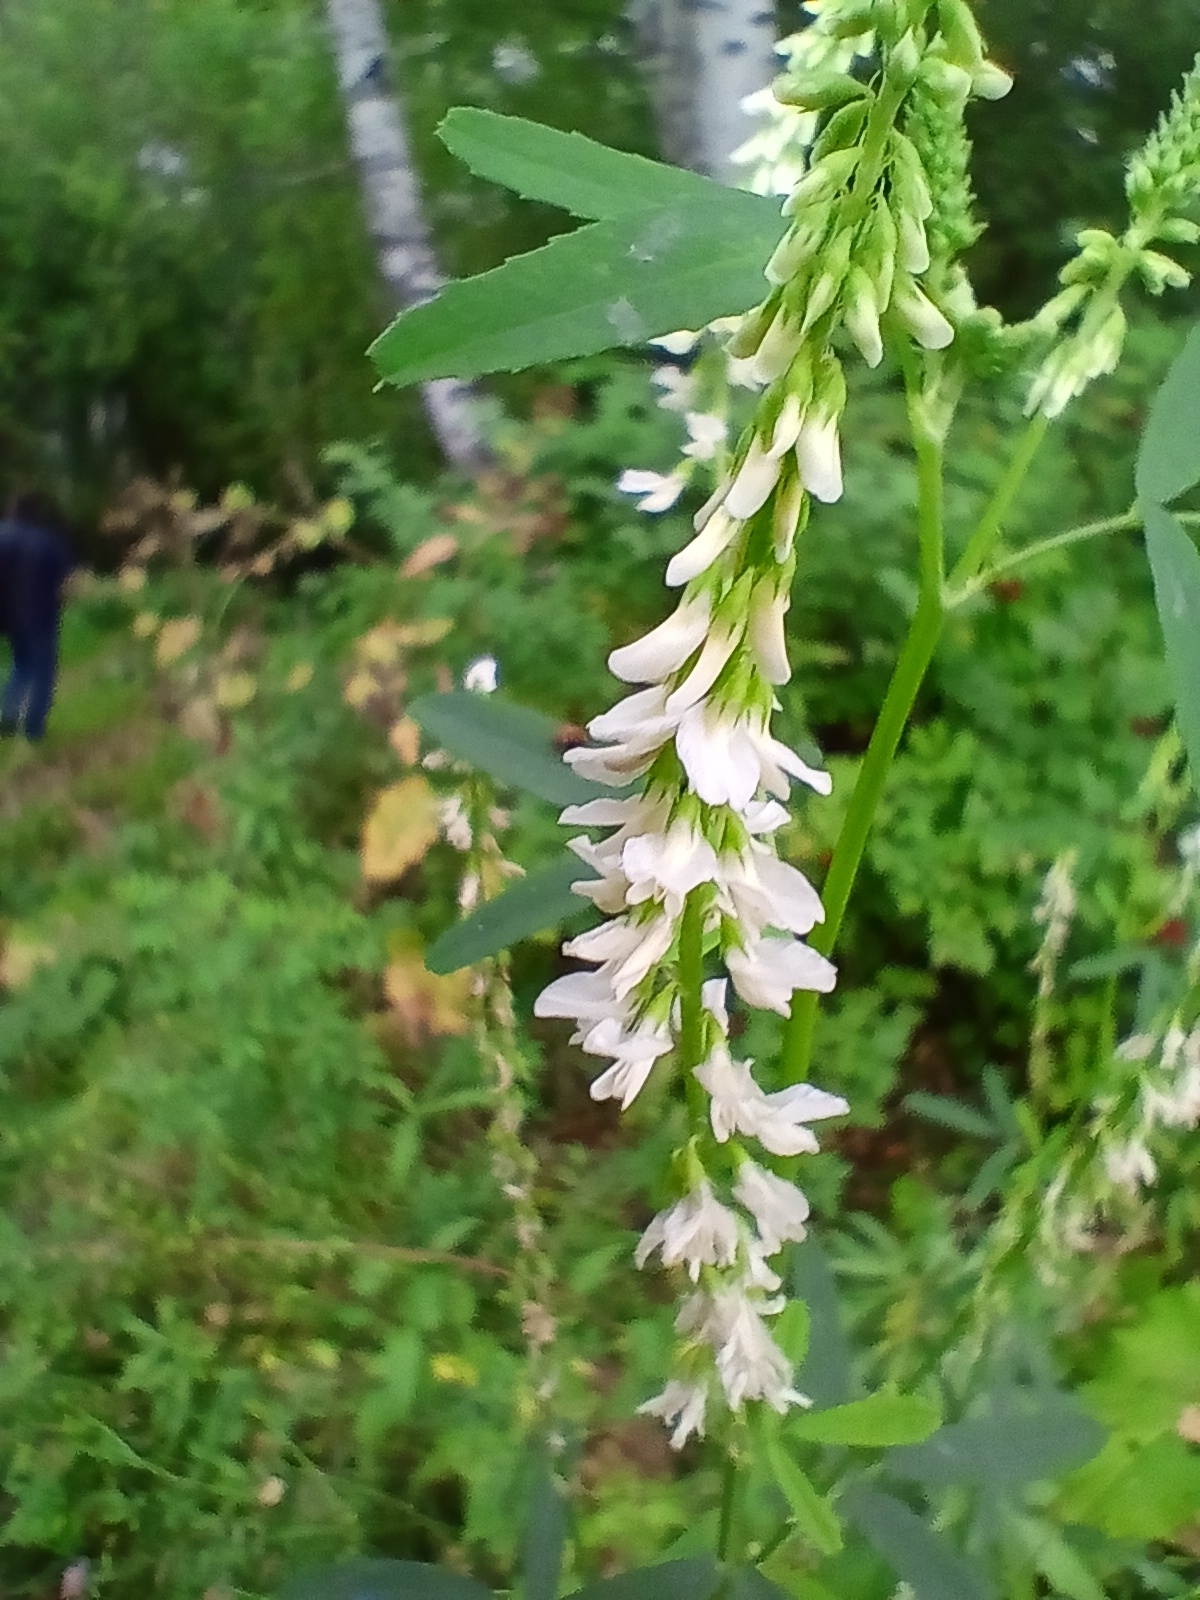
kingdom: Plantae
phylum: Tracheophyta
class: Magnoliopsida
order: Fabales
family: Fabaceae
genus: Melilotus
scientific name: Melilotus albus
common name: White melilot
